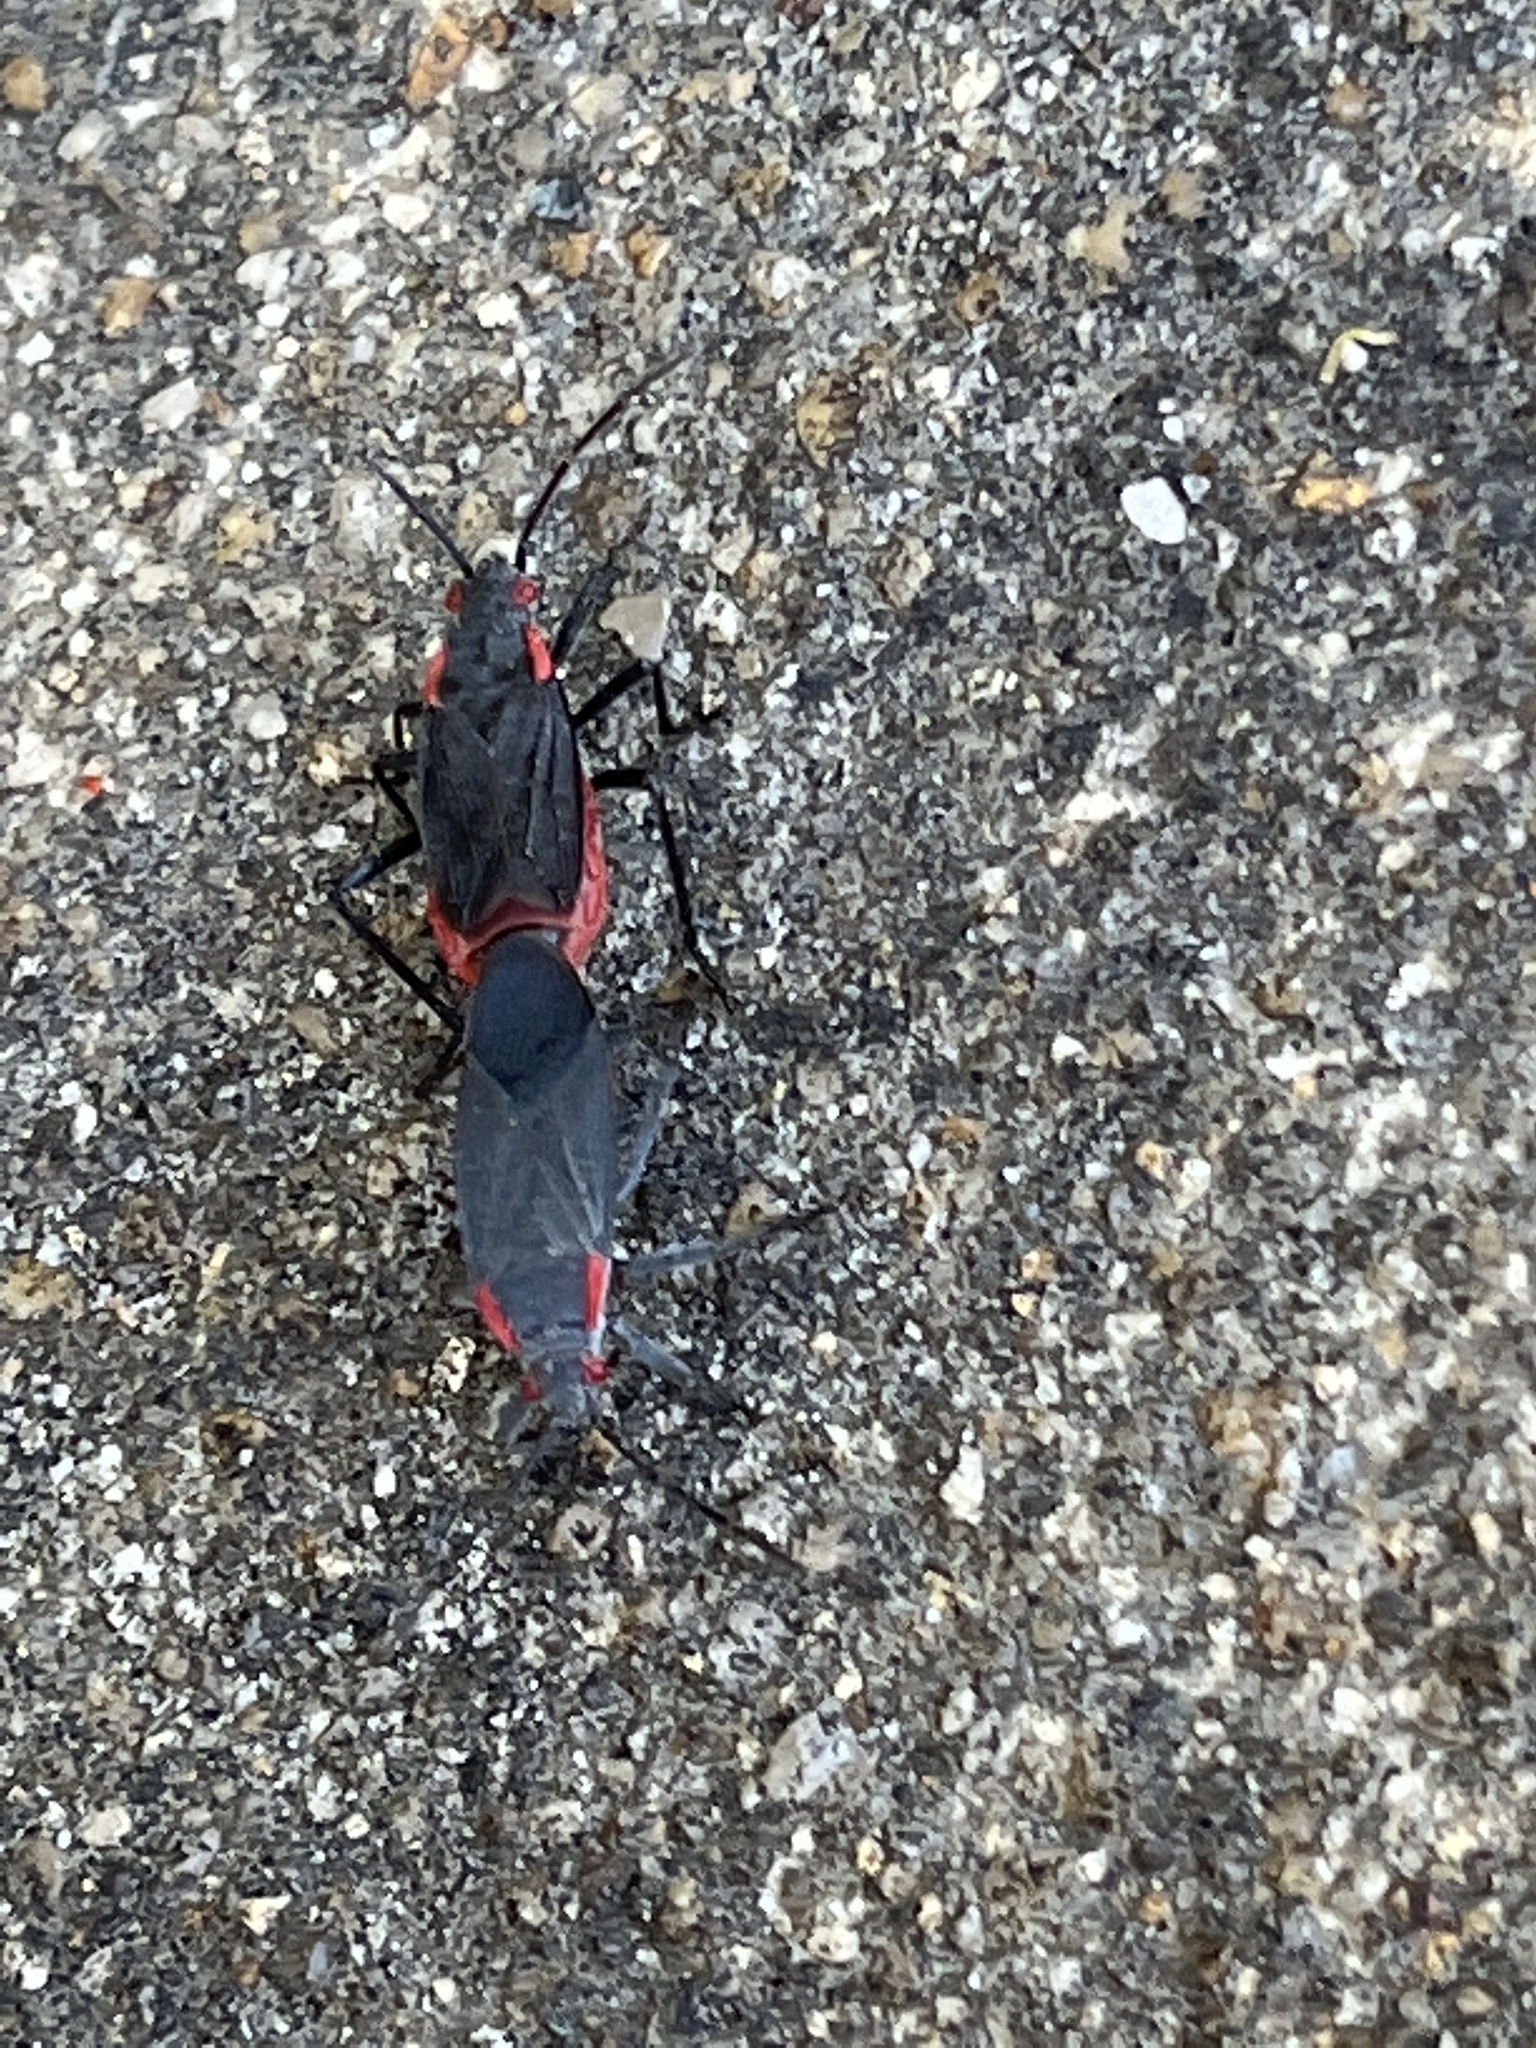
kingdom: Animalia
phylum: Arthropoda
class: Insecta
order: Hemiptera
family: Rhopalidae
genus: Jadera
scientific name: Jadera haematoloma
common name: Red-shouldered bug
